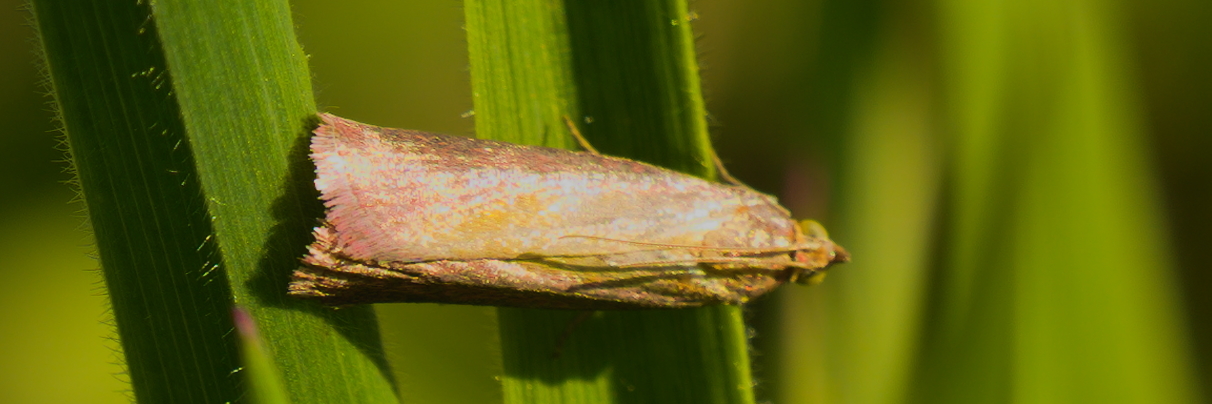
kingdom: Animalia
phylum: Arthropoda
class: Insecta
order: Lepidoptera
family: Pyralidae
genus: Oncocera
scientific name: Oncocera semirubella
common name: Rosy-striped knot-horn
